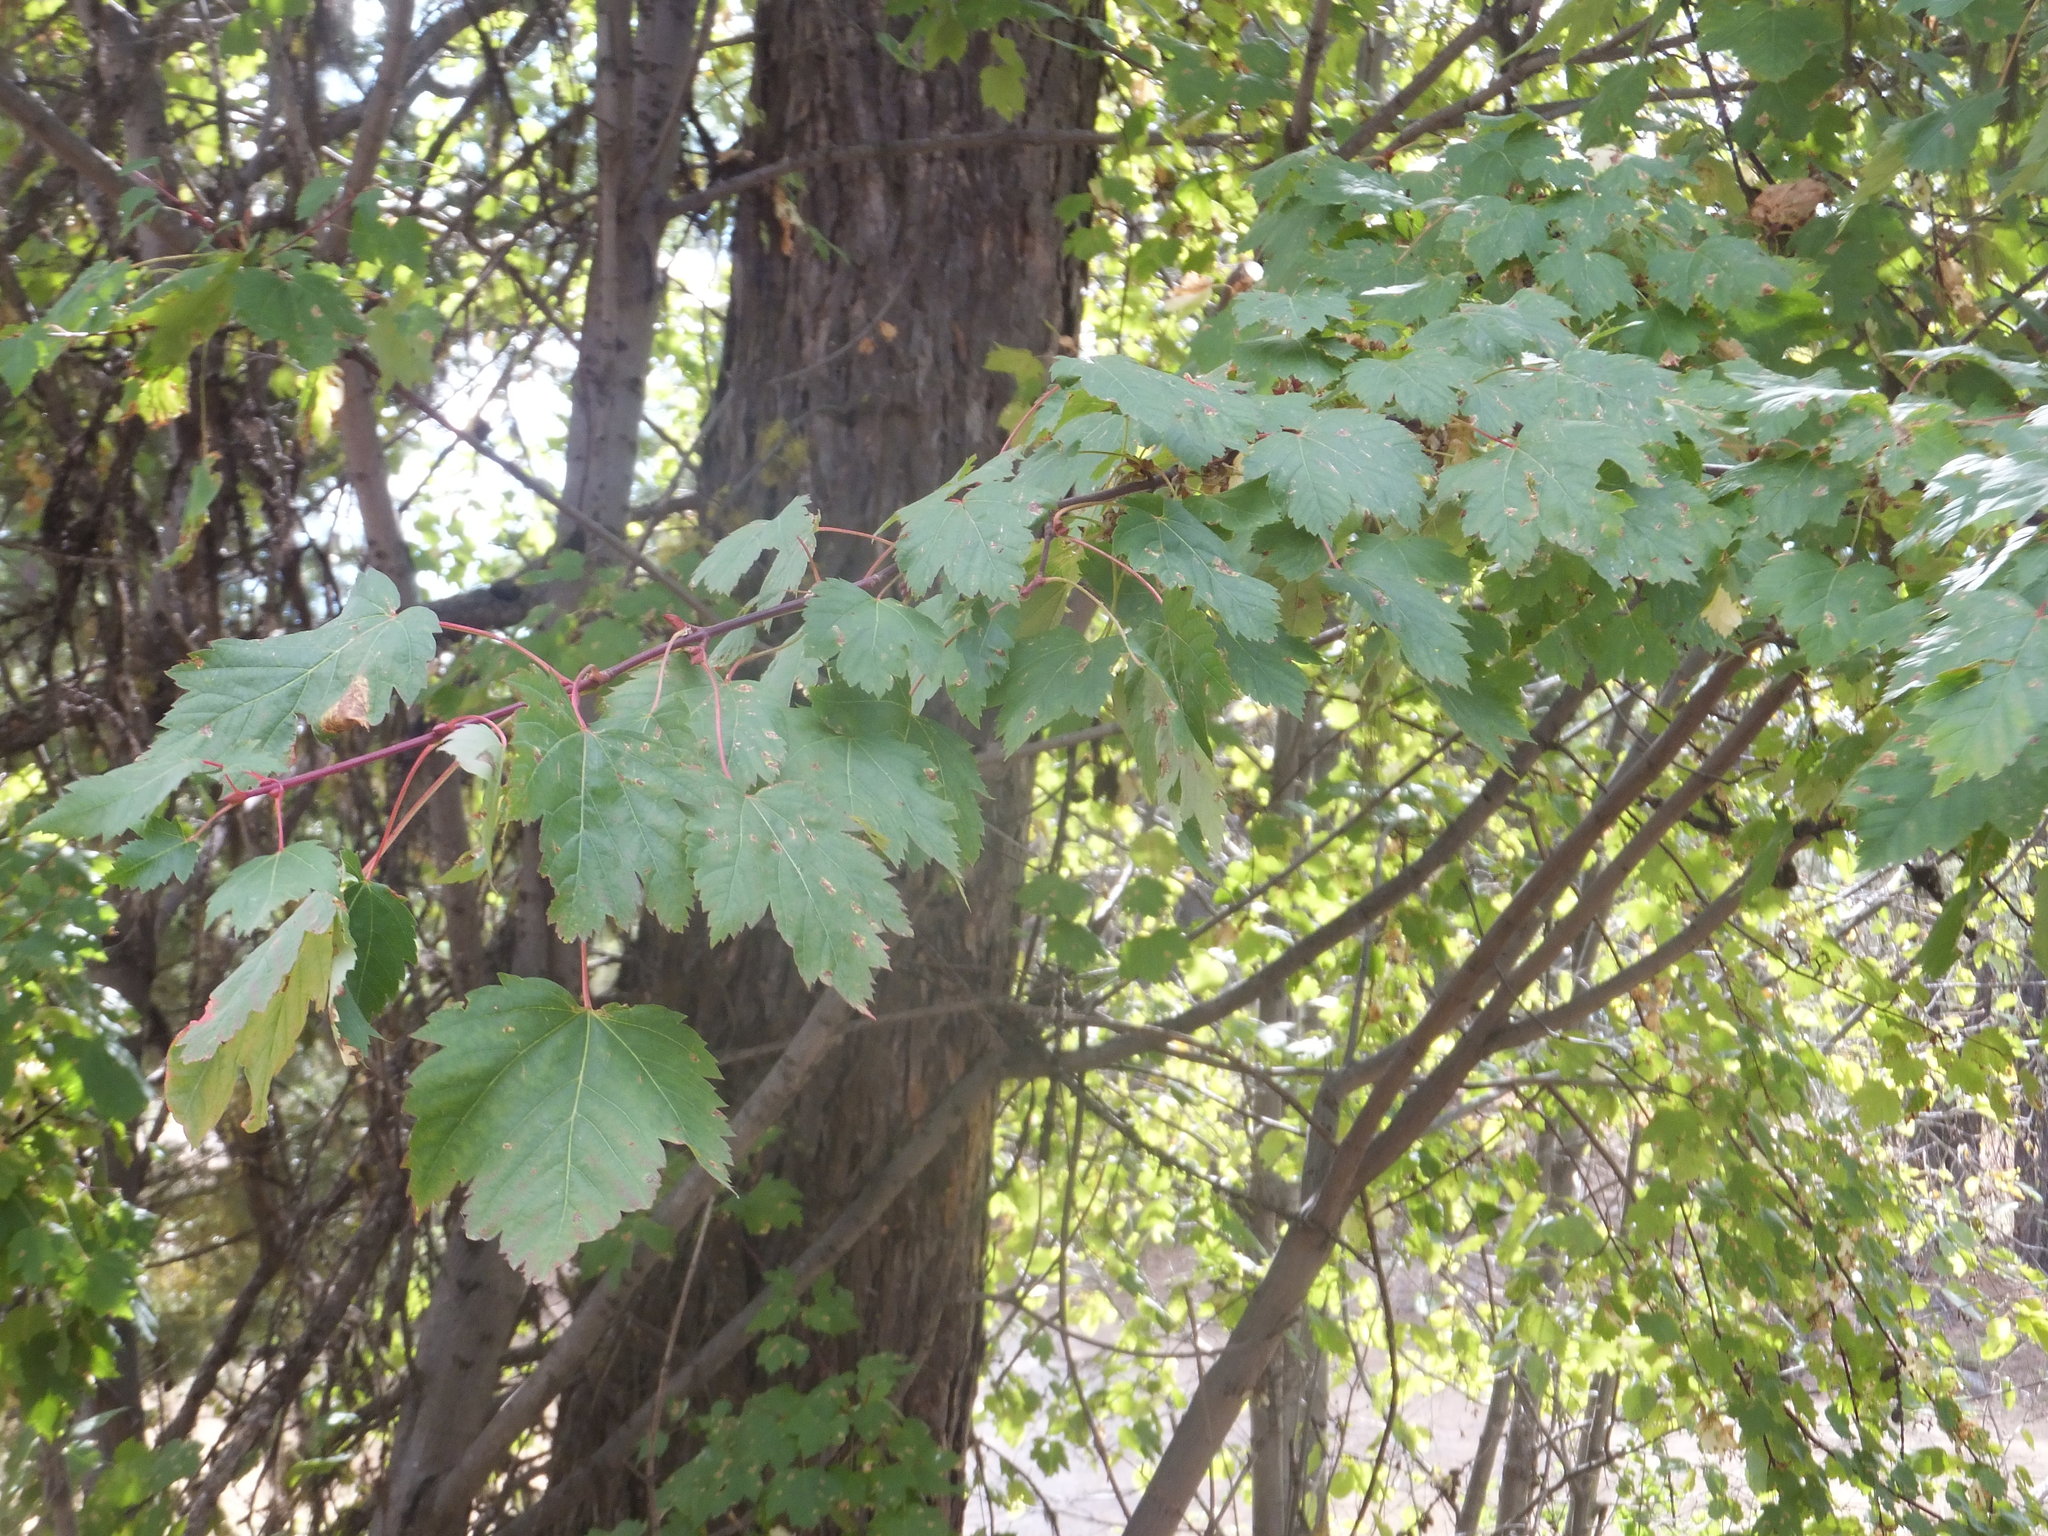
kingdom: Plantae
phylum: Tracheophyta
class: Magnoliopsida
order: Sapindales
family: Sapindaceae
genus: Acer
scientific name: Acer glabrum
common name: Rocky mountain maple
